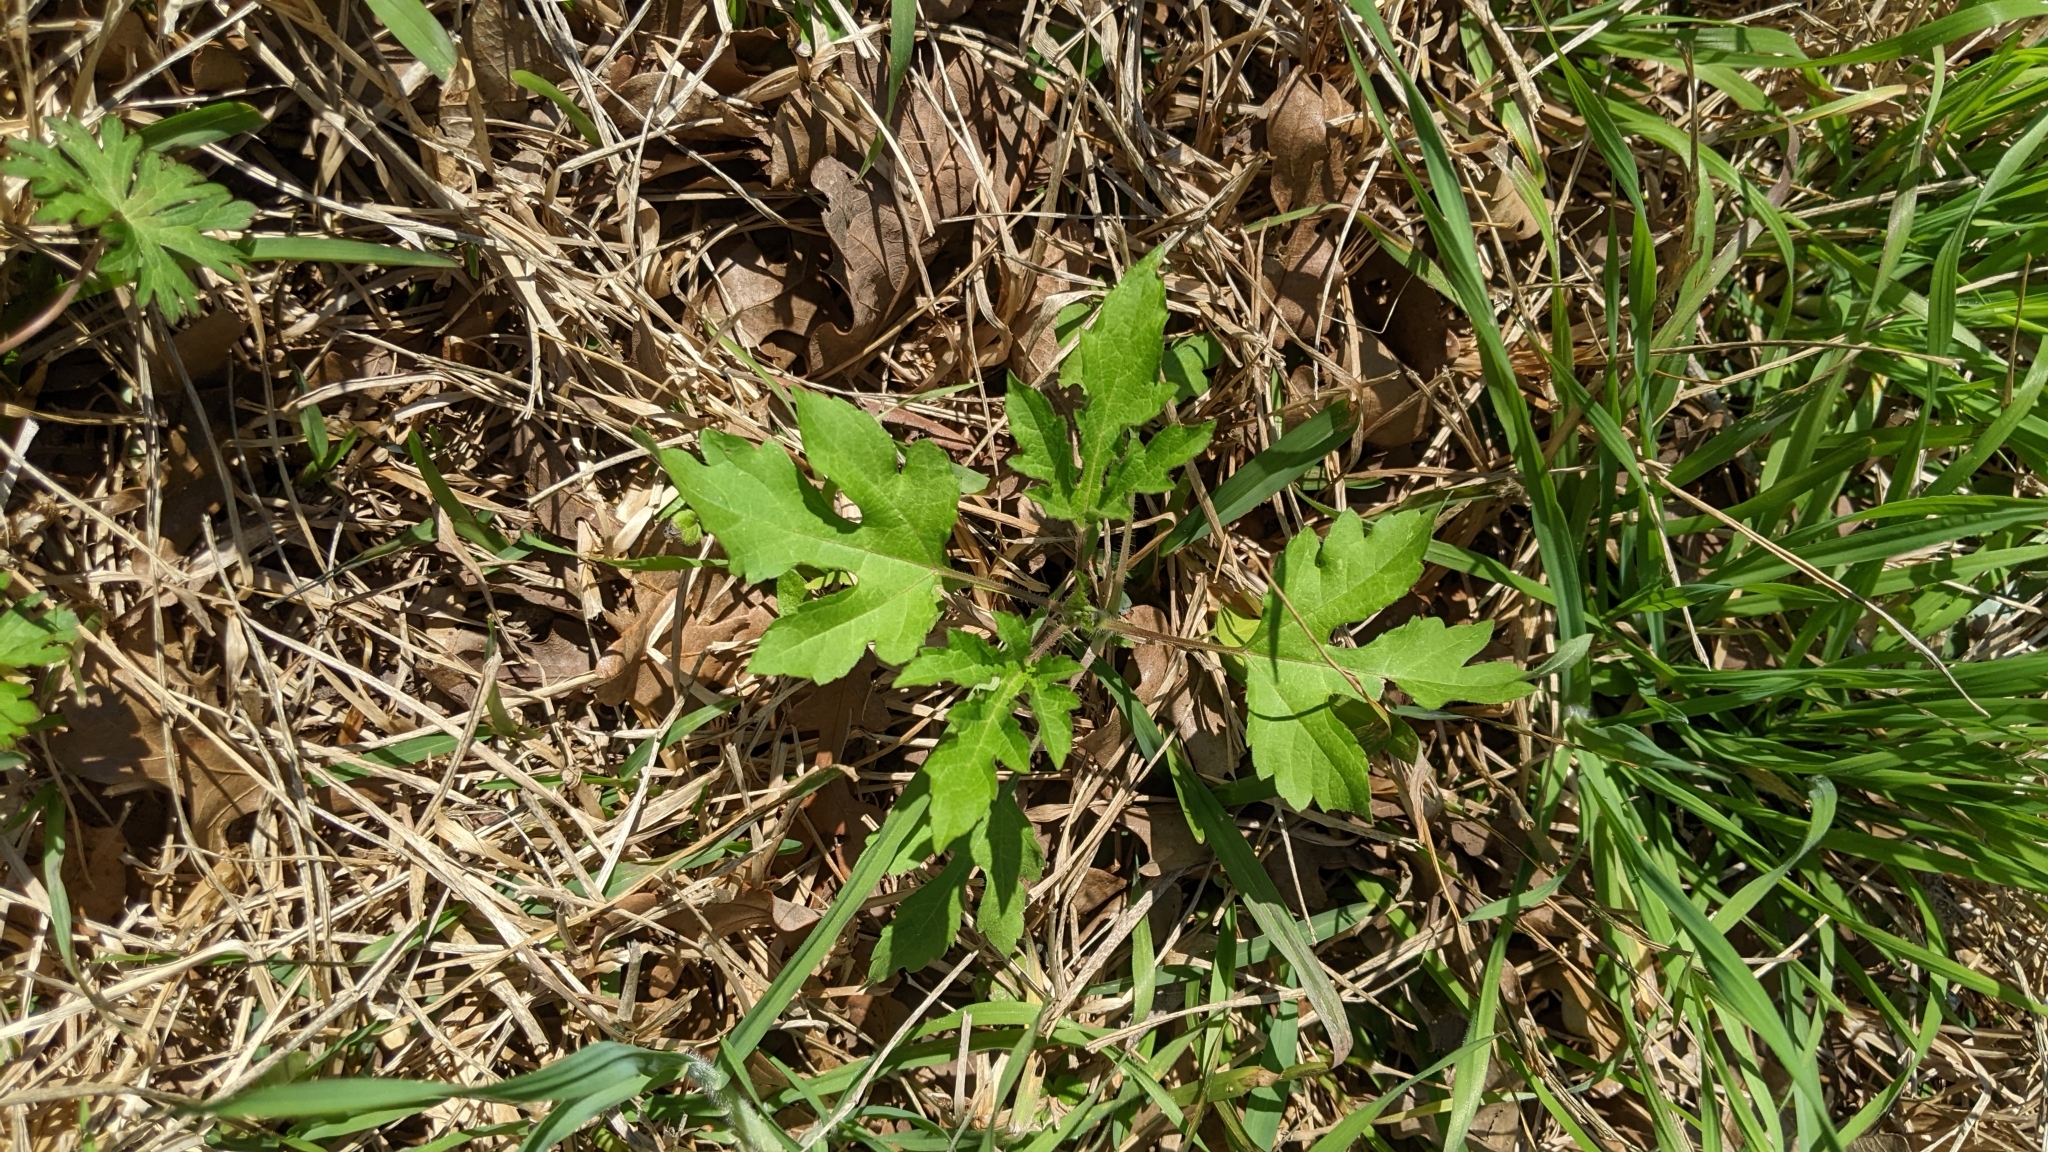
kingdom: Plantae
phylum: Tracheophyta
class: Magnoliopsida
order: Asterales
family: Asteraceae
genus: Ambrosia
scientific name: Ambrosia trifida
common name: Giant ragweed
